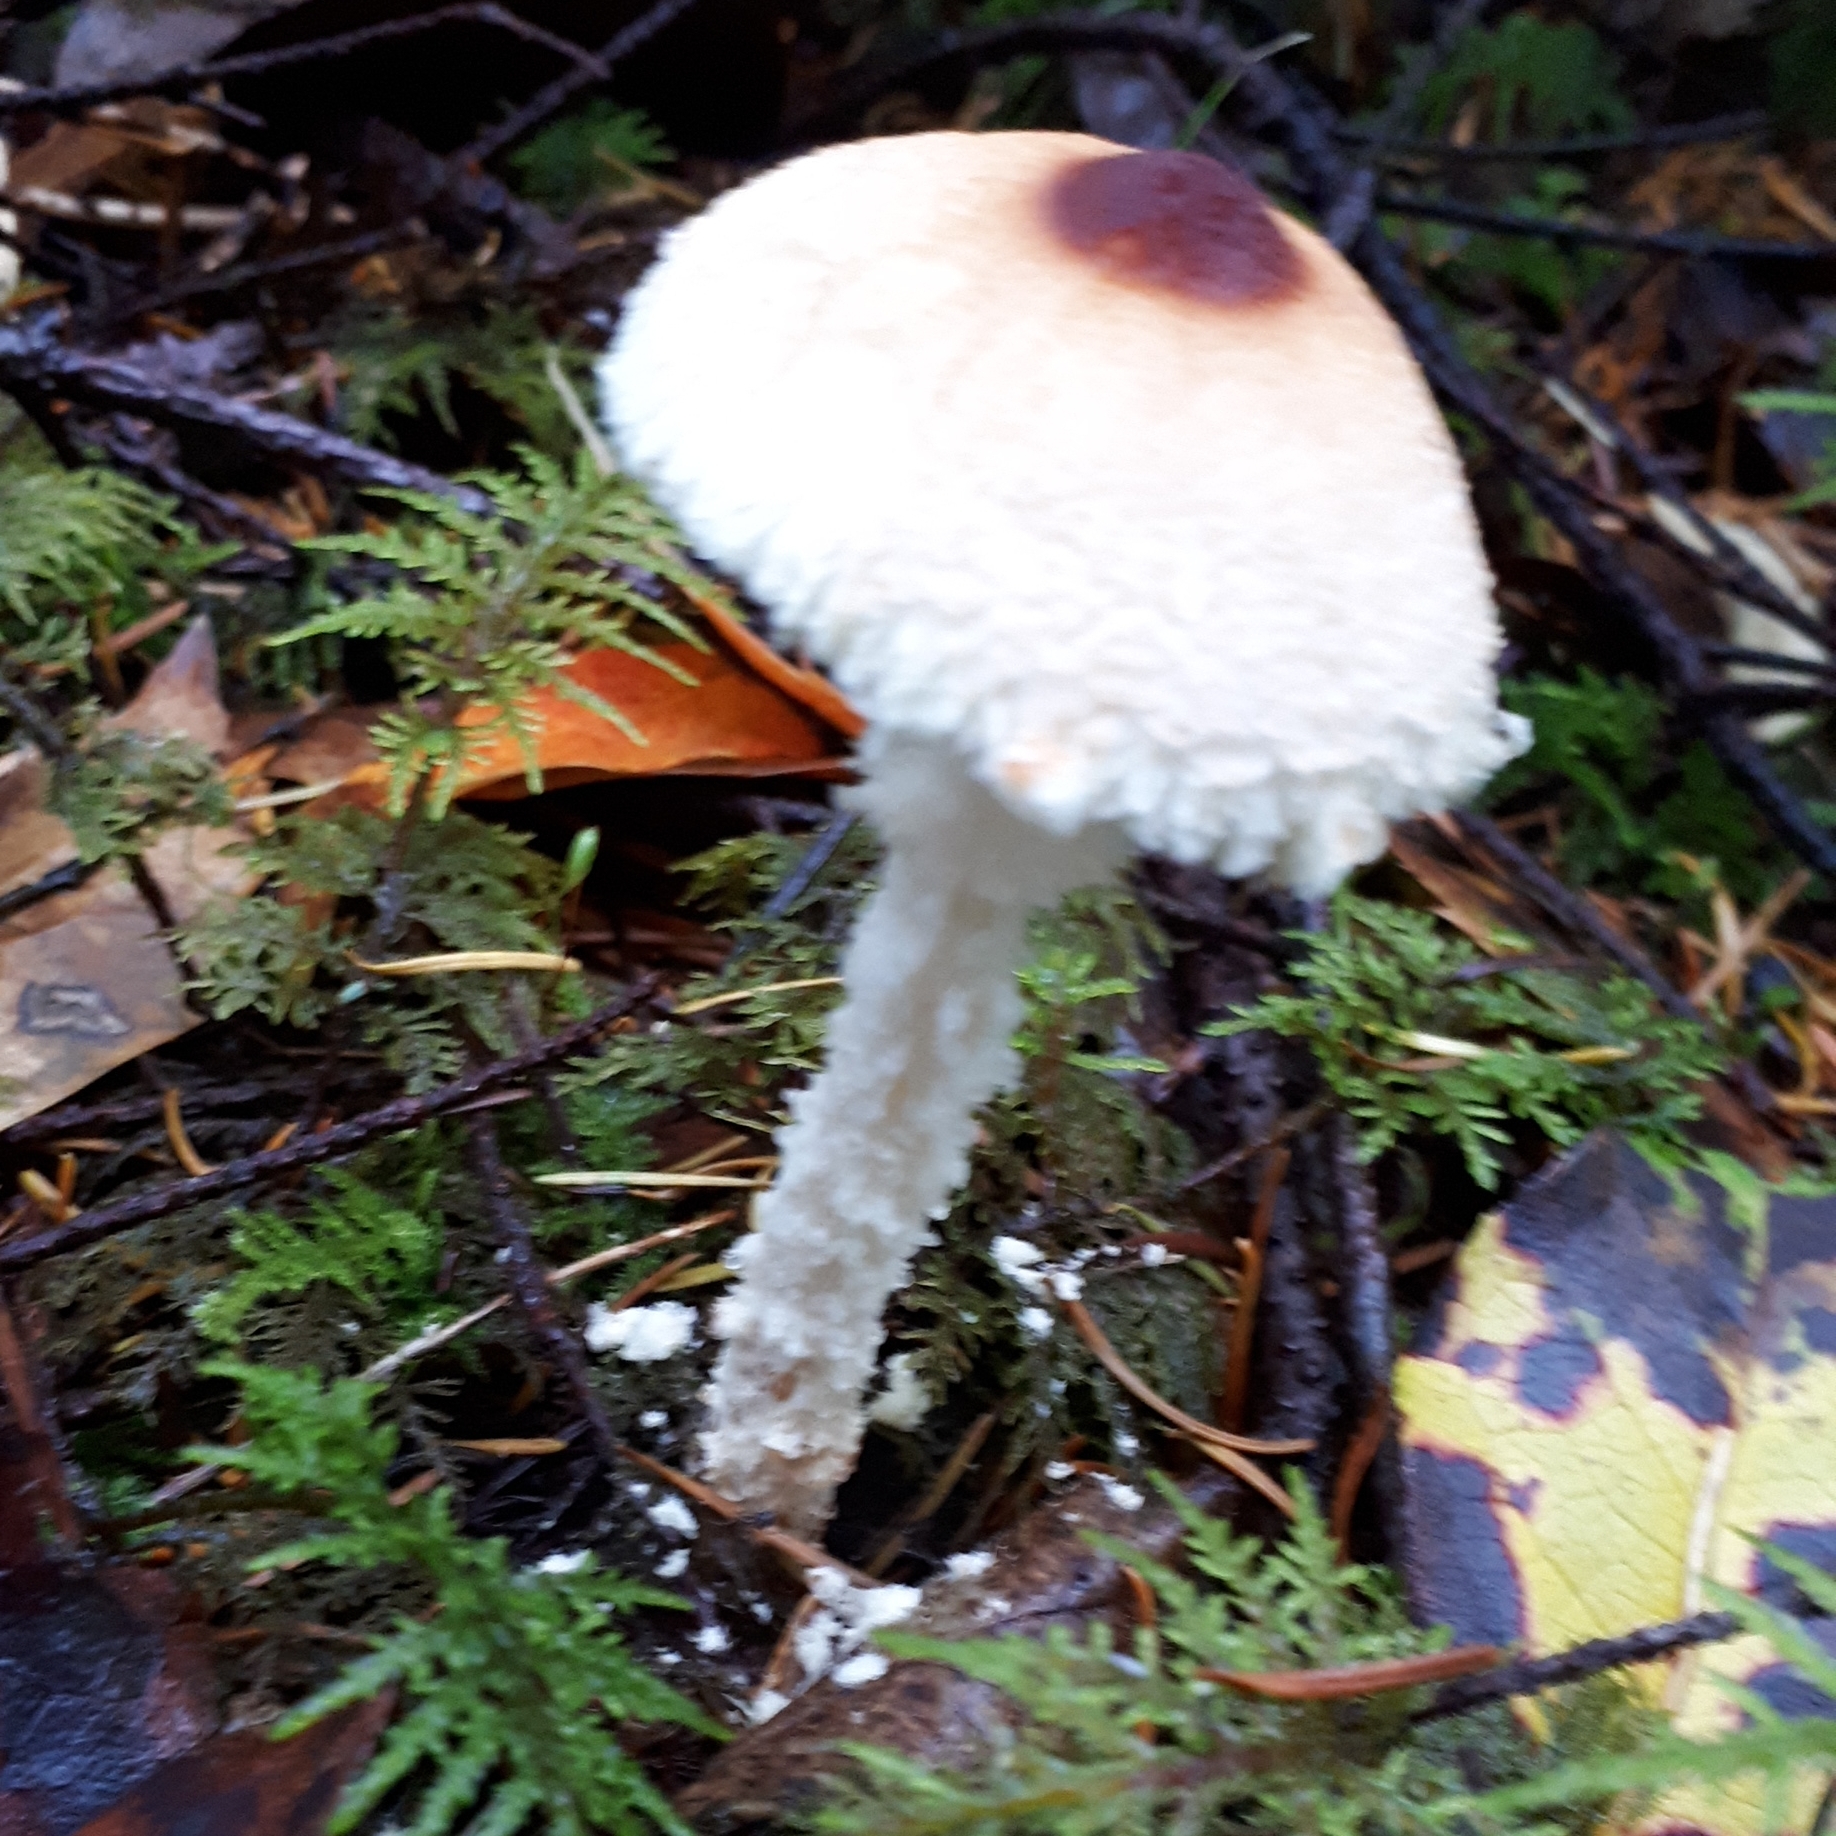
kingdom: Fungi
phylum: Basidiomycota
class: Agaricomycetes
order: Agaricales
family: Agaricaceae
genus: Lepiota
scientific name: Lepiota magnispora
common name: Yellowfoot dapperling
